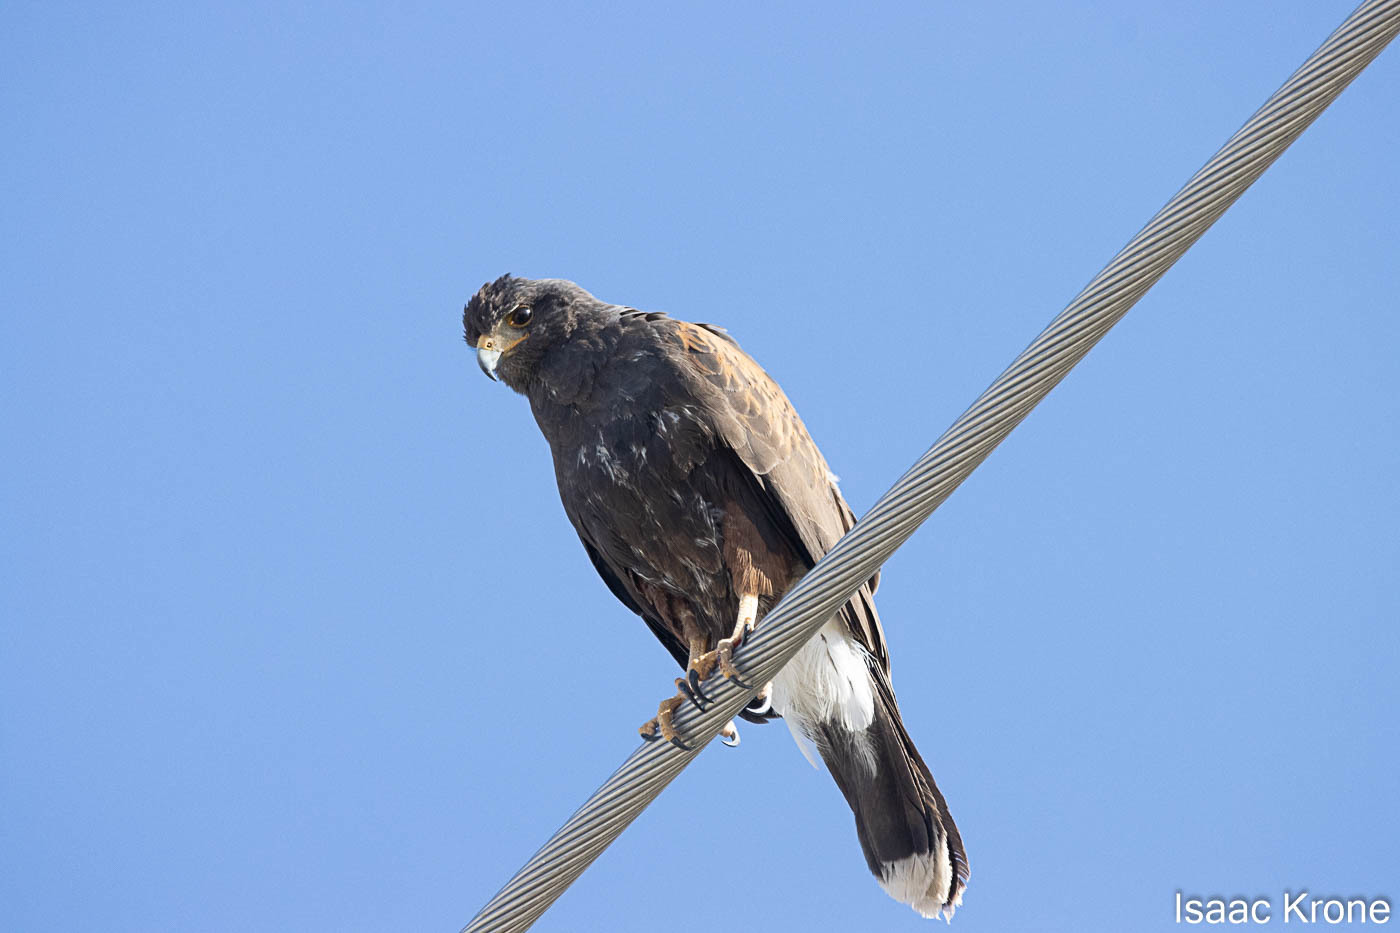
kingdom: Animalia
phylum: Chordata
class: Aves
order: Accipitriformes
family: Accipitridae
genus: Parabuteo
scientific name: Parabuteo unicinctus
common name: Harris's hawk
